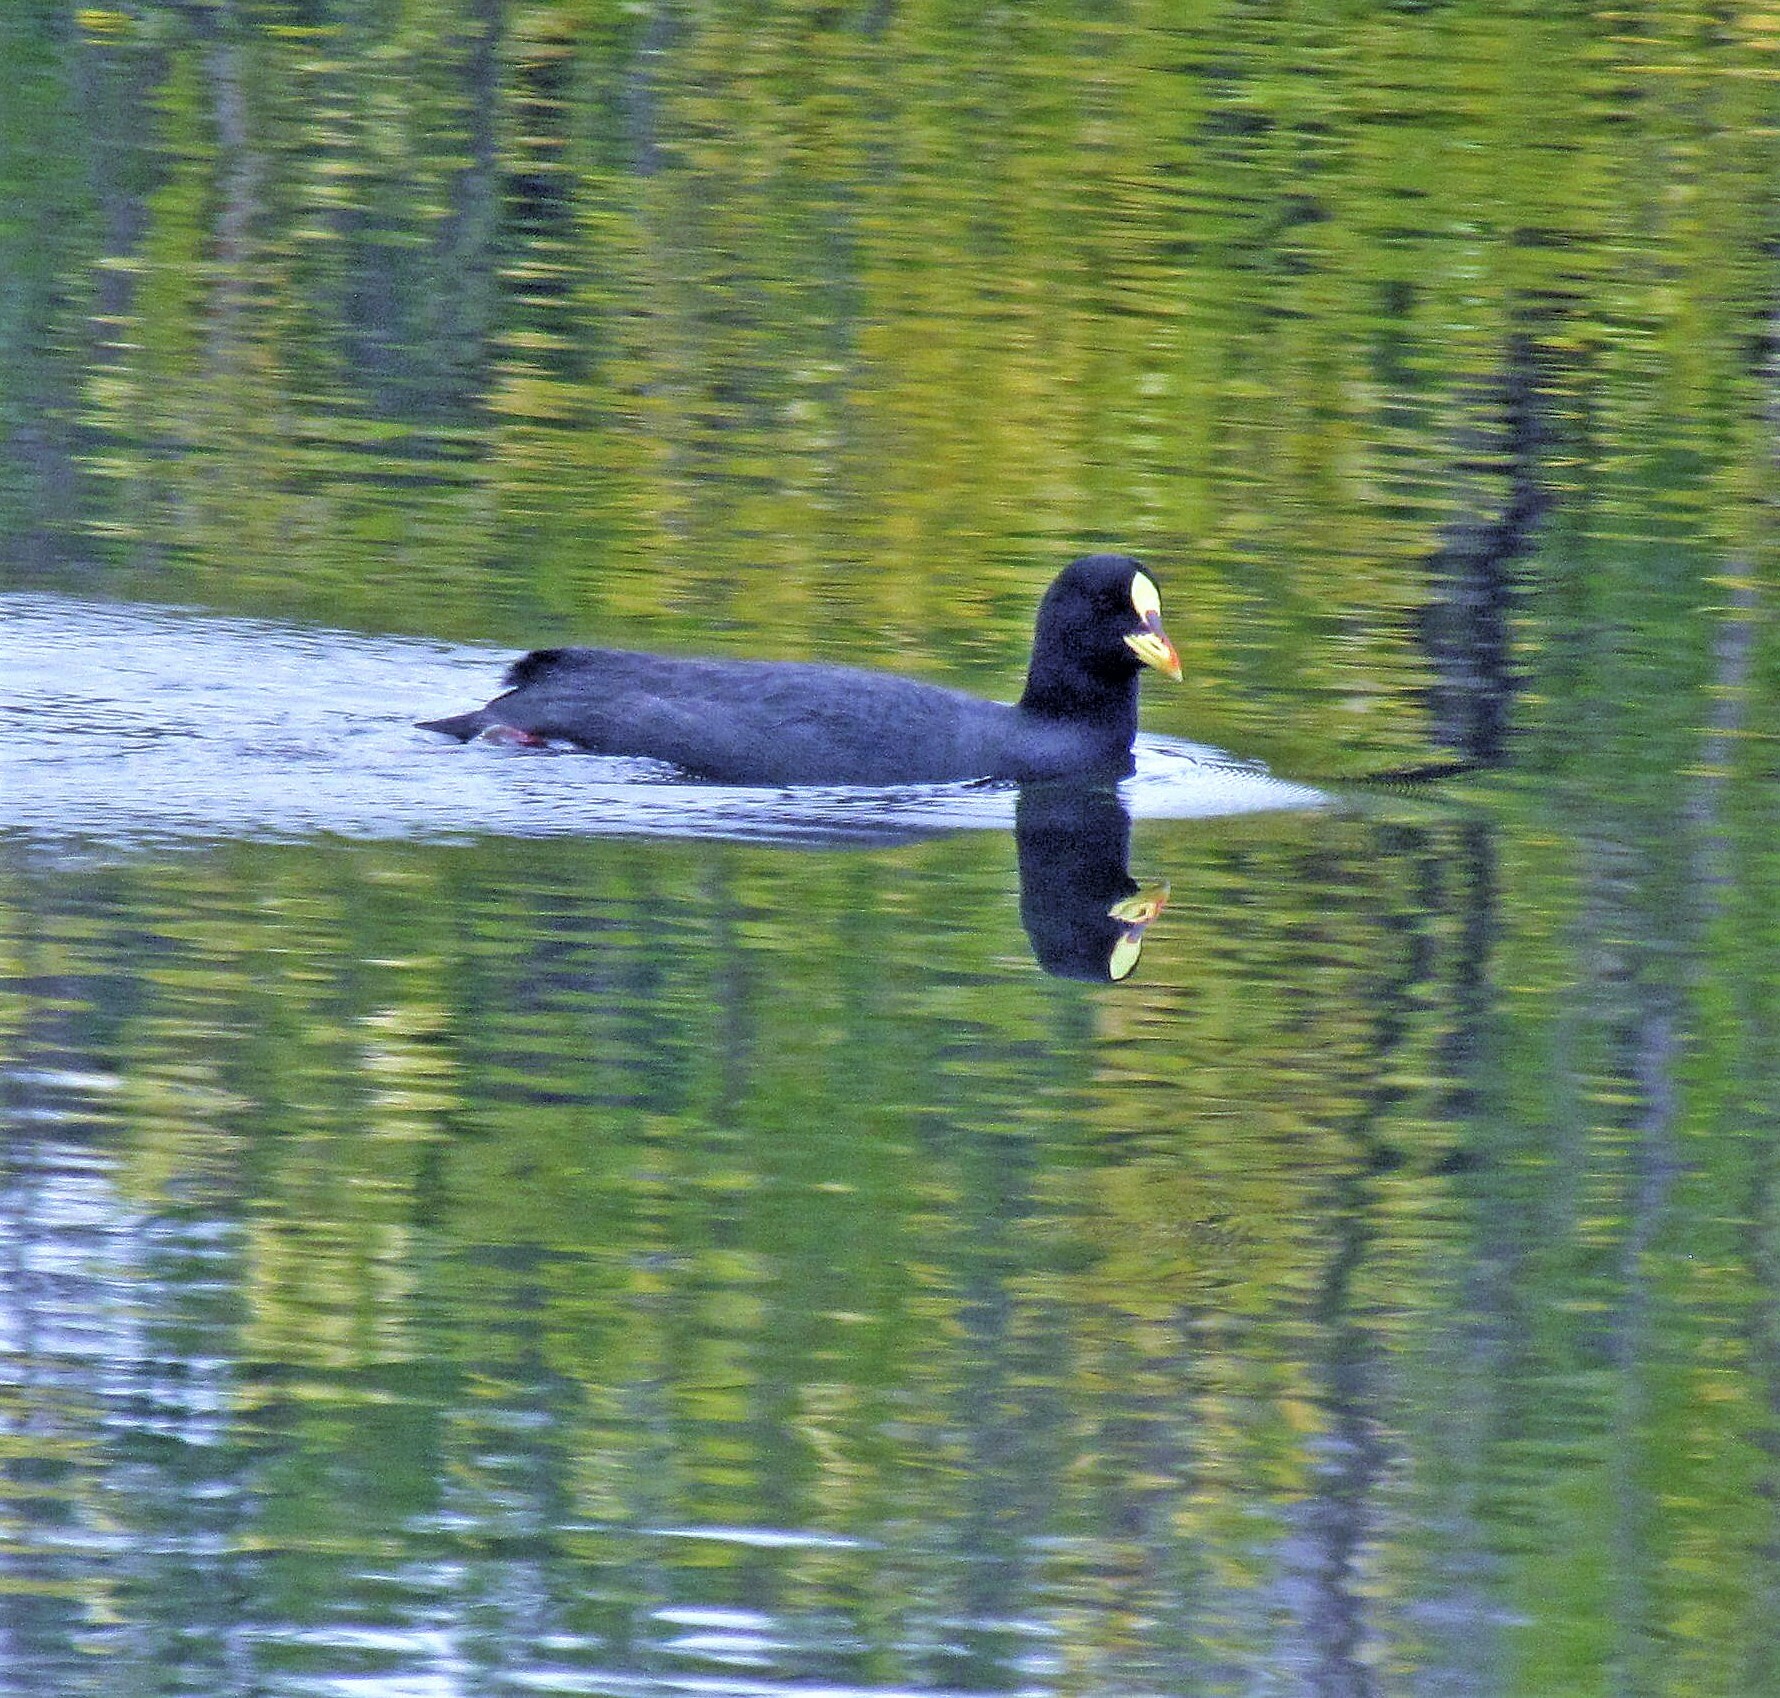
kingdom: Animalia
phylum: Chordata
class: Aves
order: Gruiformes
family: Rallidae
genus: Fulica
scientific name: Fulica armillata
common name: Red-gartered coot
